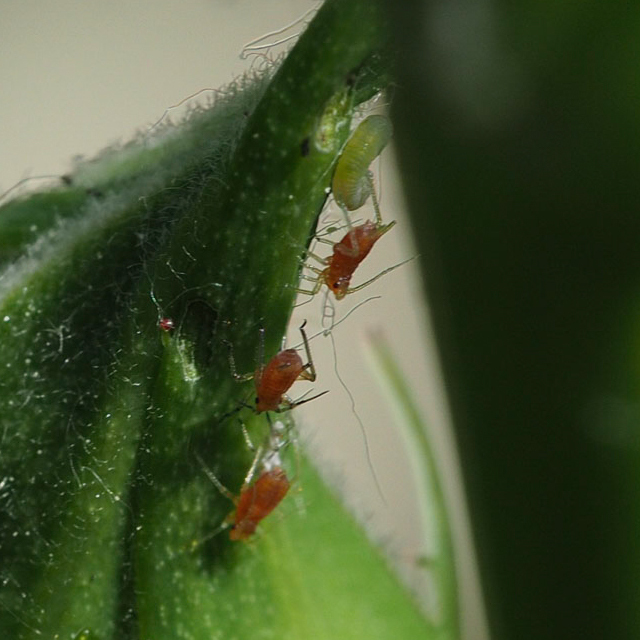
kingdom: Animalia
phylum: Arthropoda
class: Insecta
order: Hemiptera
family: Aphididae
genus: Macrosiphum
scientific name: Macrosiphum rosae
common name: Rose aphid
